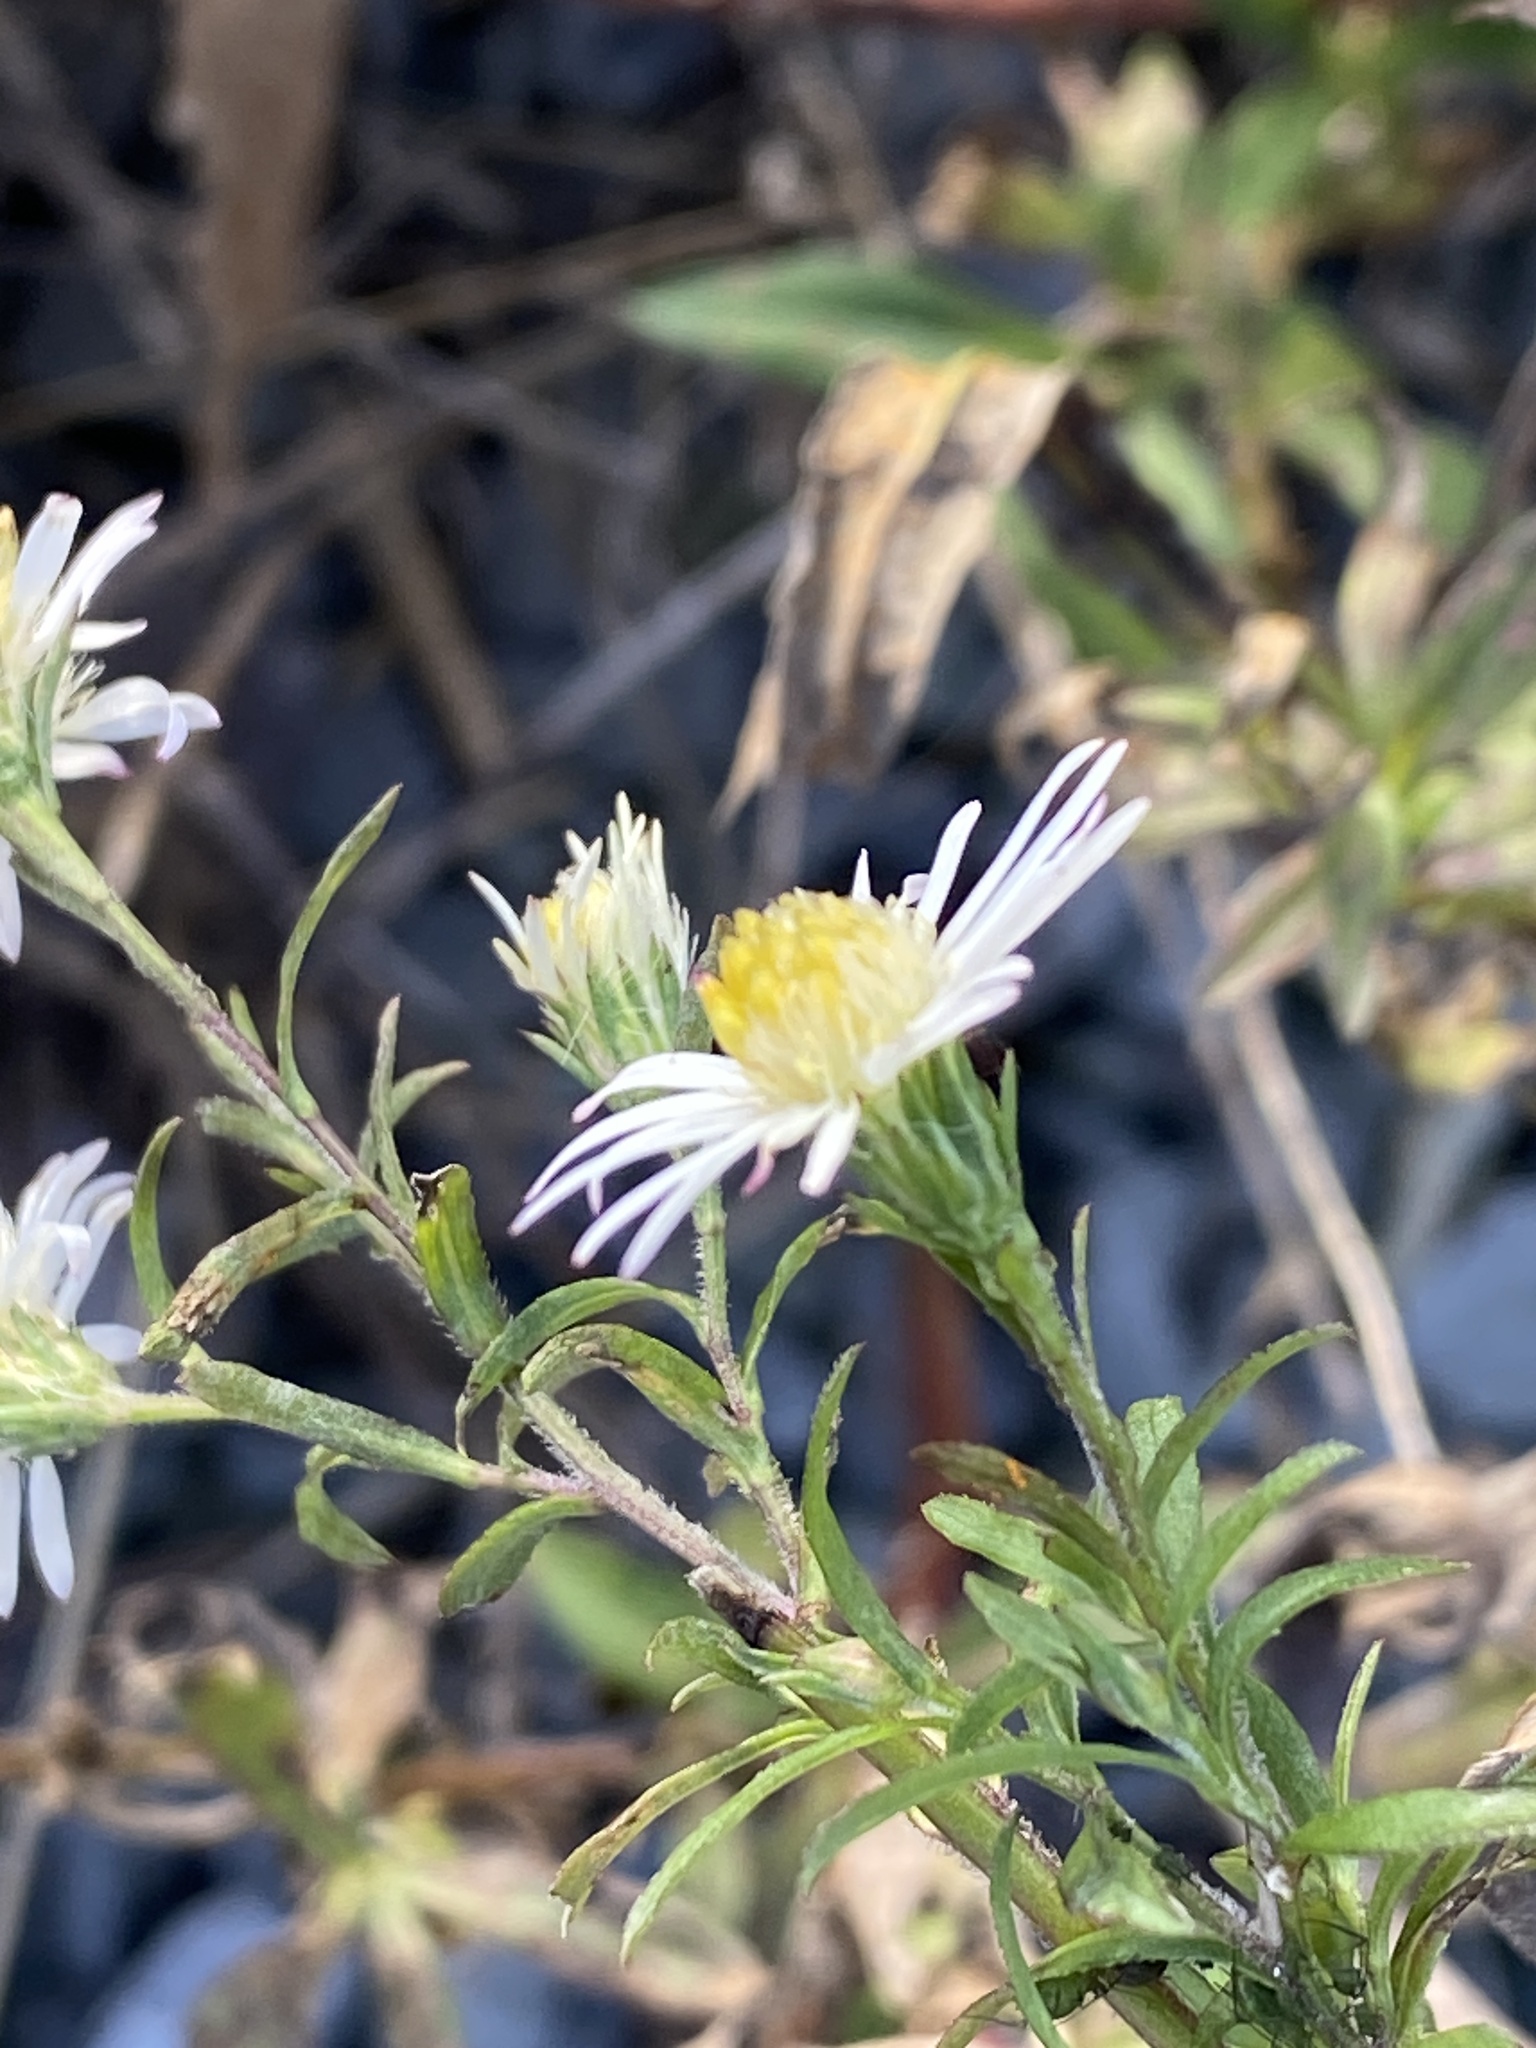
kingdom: Plantae
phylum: Tracheophyta
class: Magnoliopsida
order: Asterales
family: Asteraceae
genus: Symphyotrichum
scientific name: Symphyotrichum lanceolatum
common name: Panicled aster
